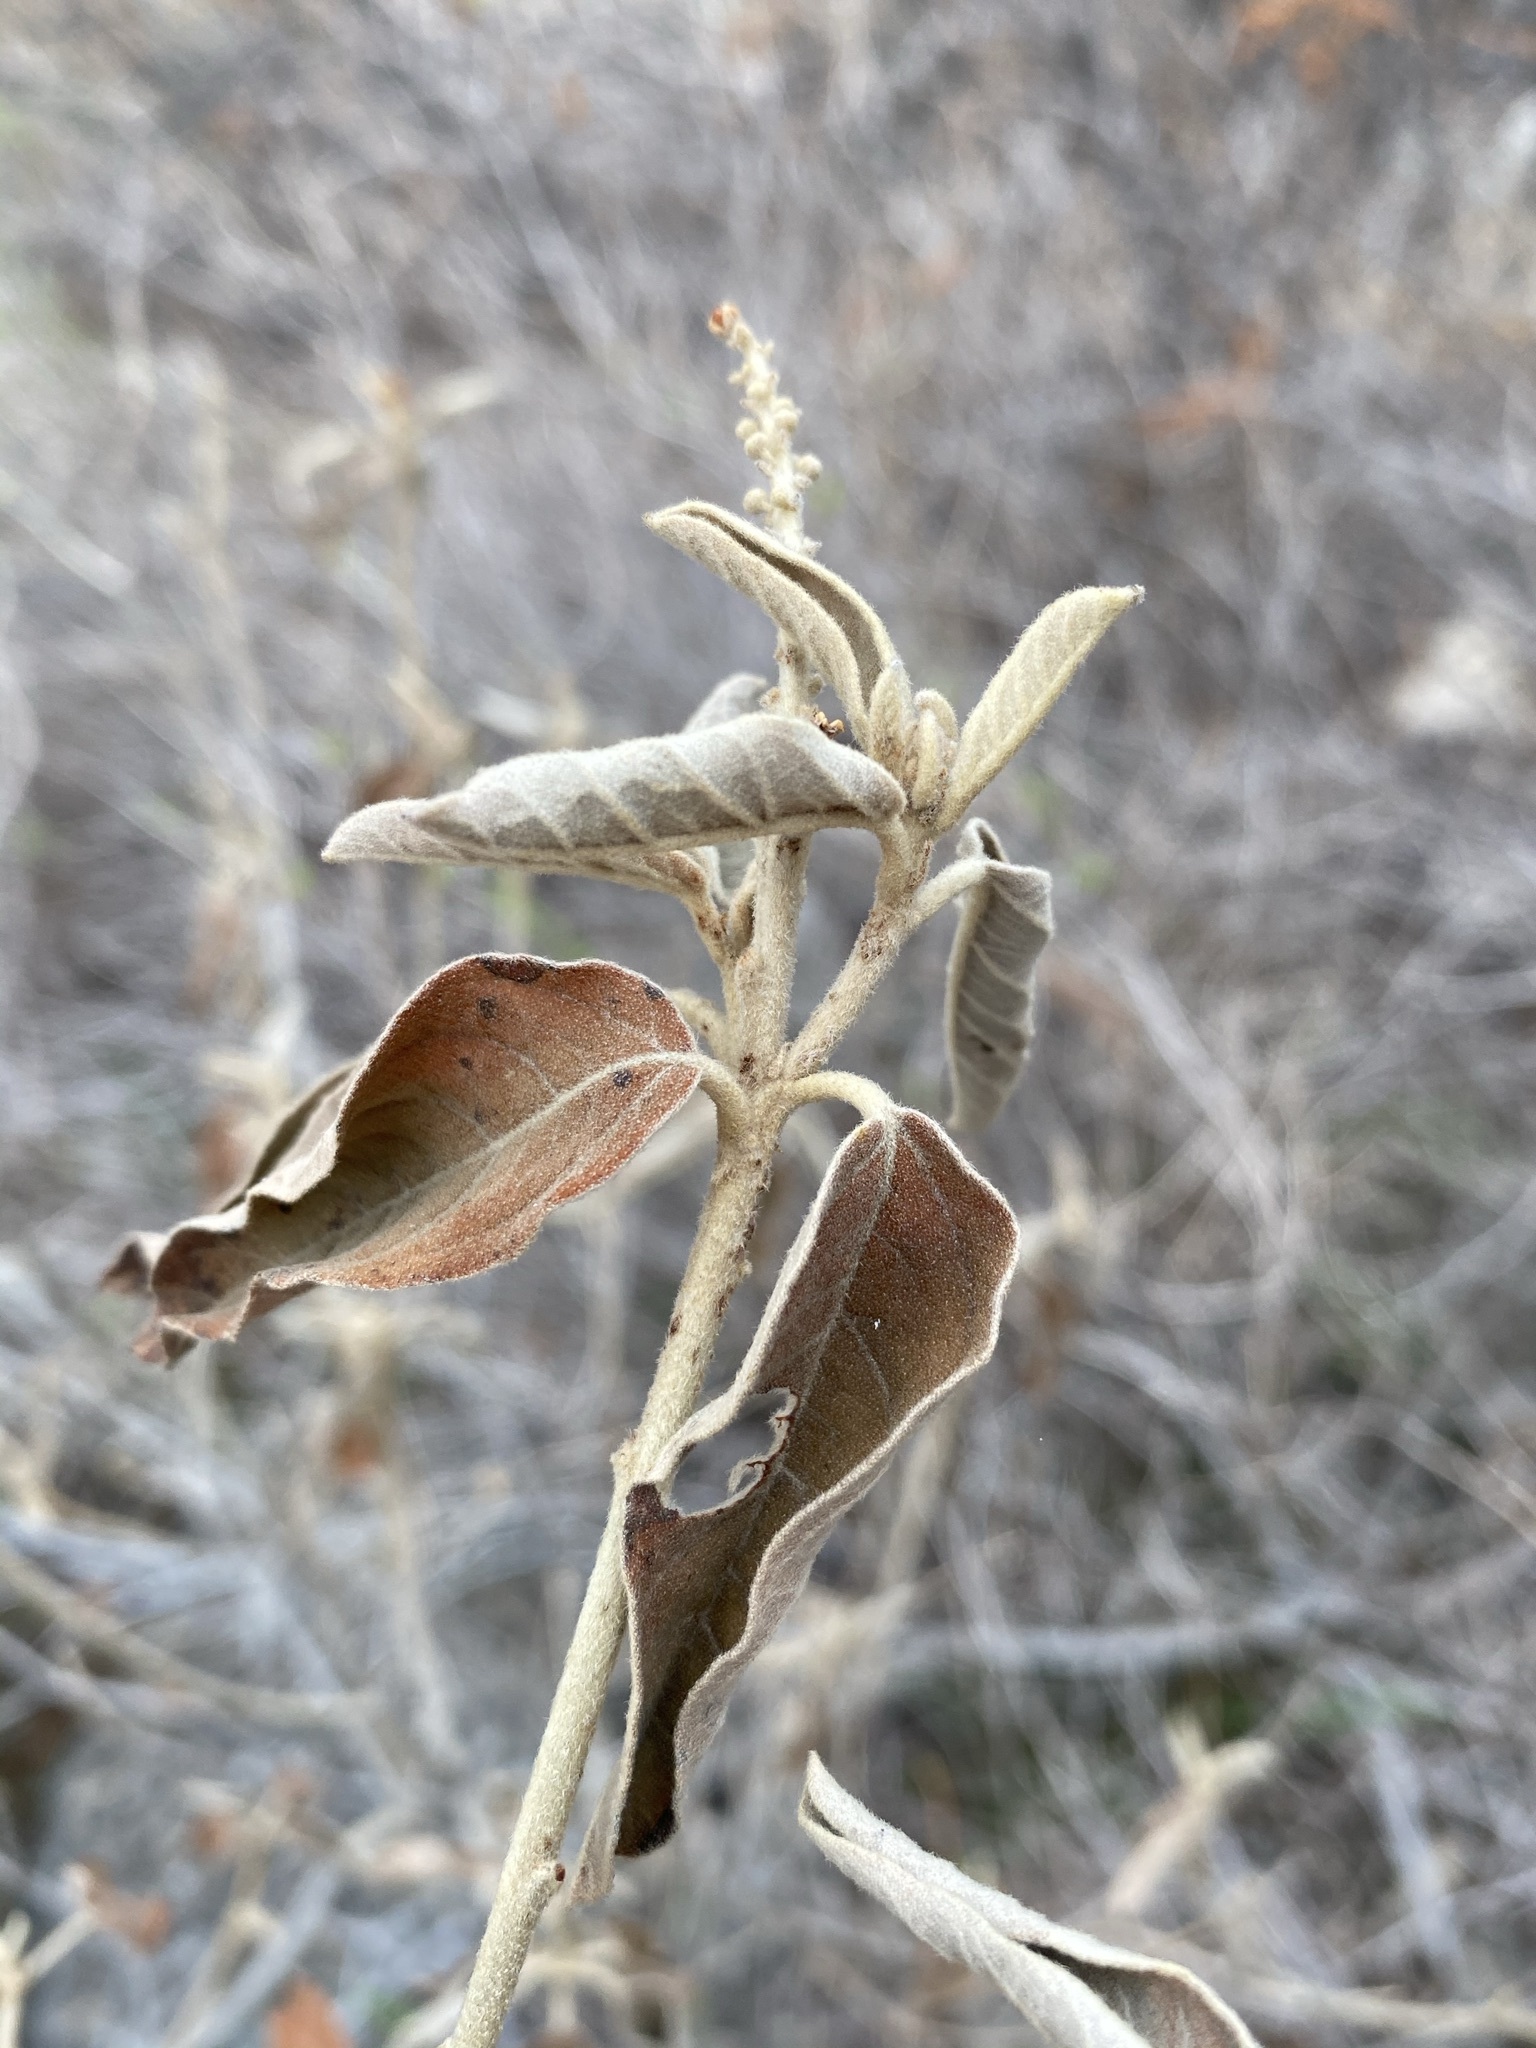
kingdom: Plantae
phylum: Tracheophyta
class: Magnoliopsida
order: Malpighiales
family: Euphorbiaceae
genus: Croton
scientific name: Croton fruticulosus
